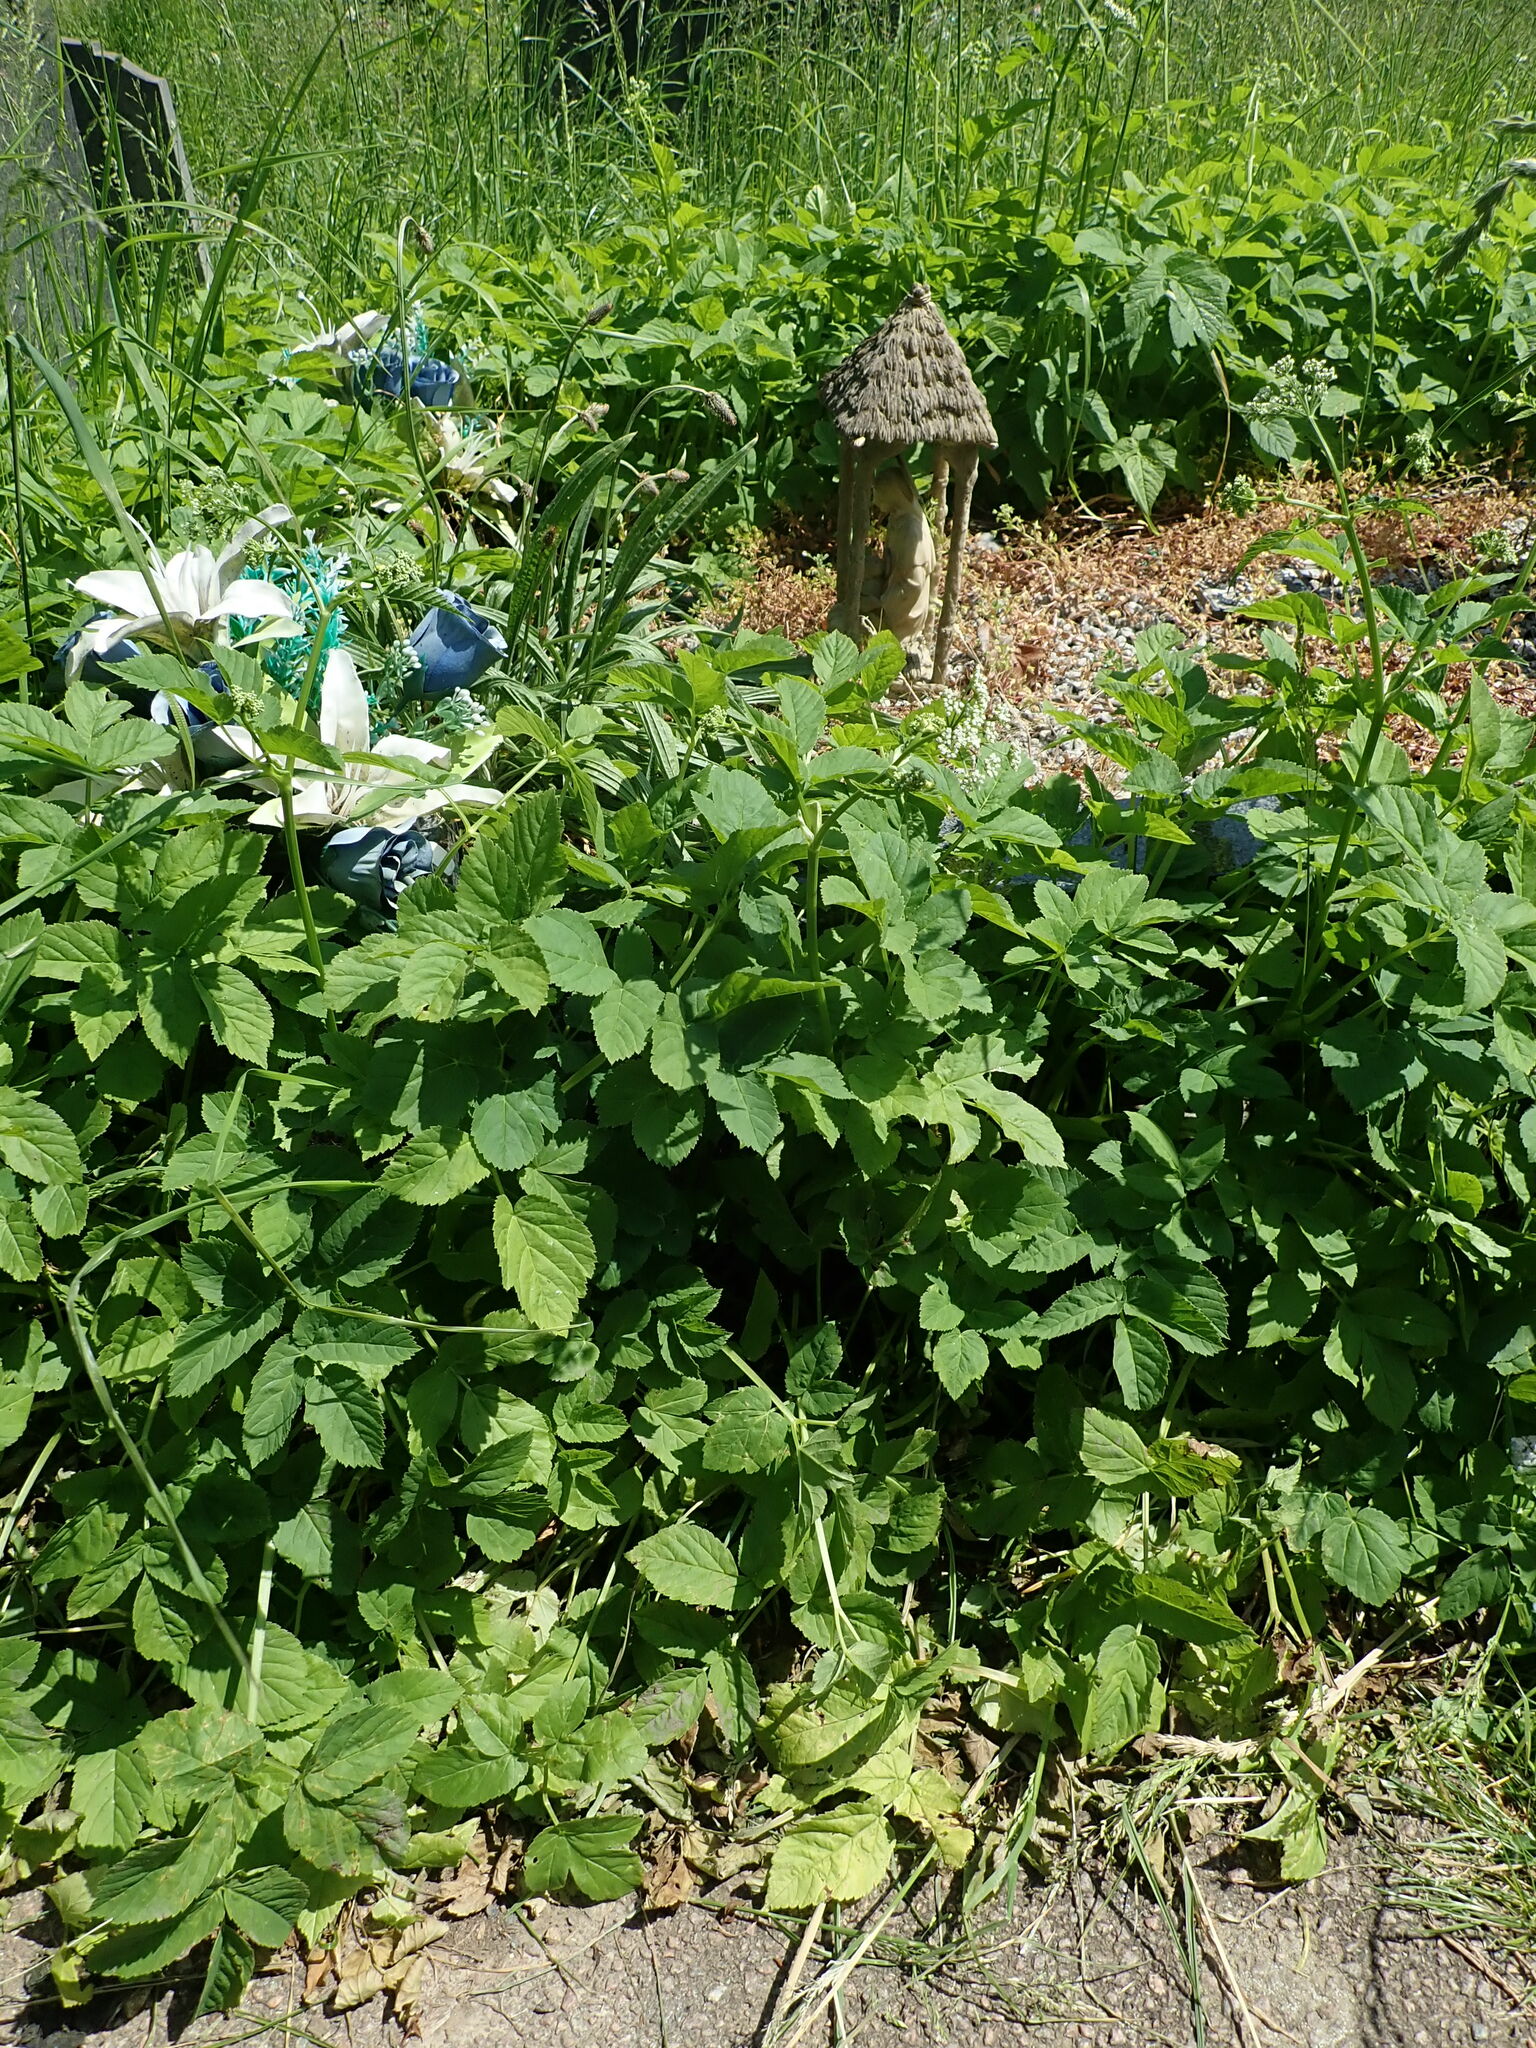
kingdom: Plantae
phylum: Tracheophyta
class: Magnoliopsida
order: Apiales
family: Apiaceae
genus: Aegopodium
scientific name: Aegopodium podagraria
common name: Ground-elder
